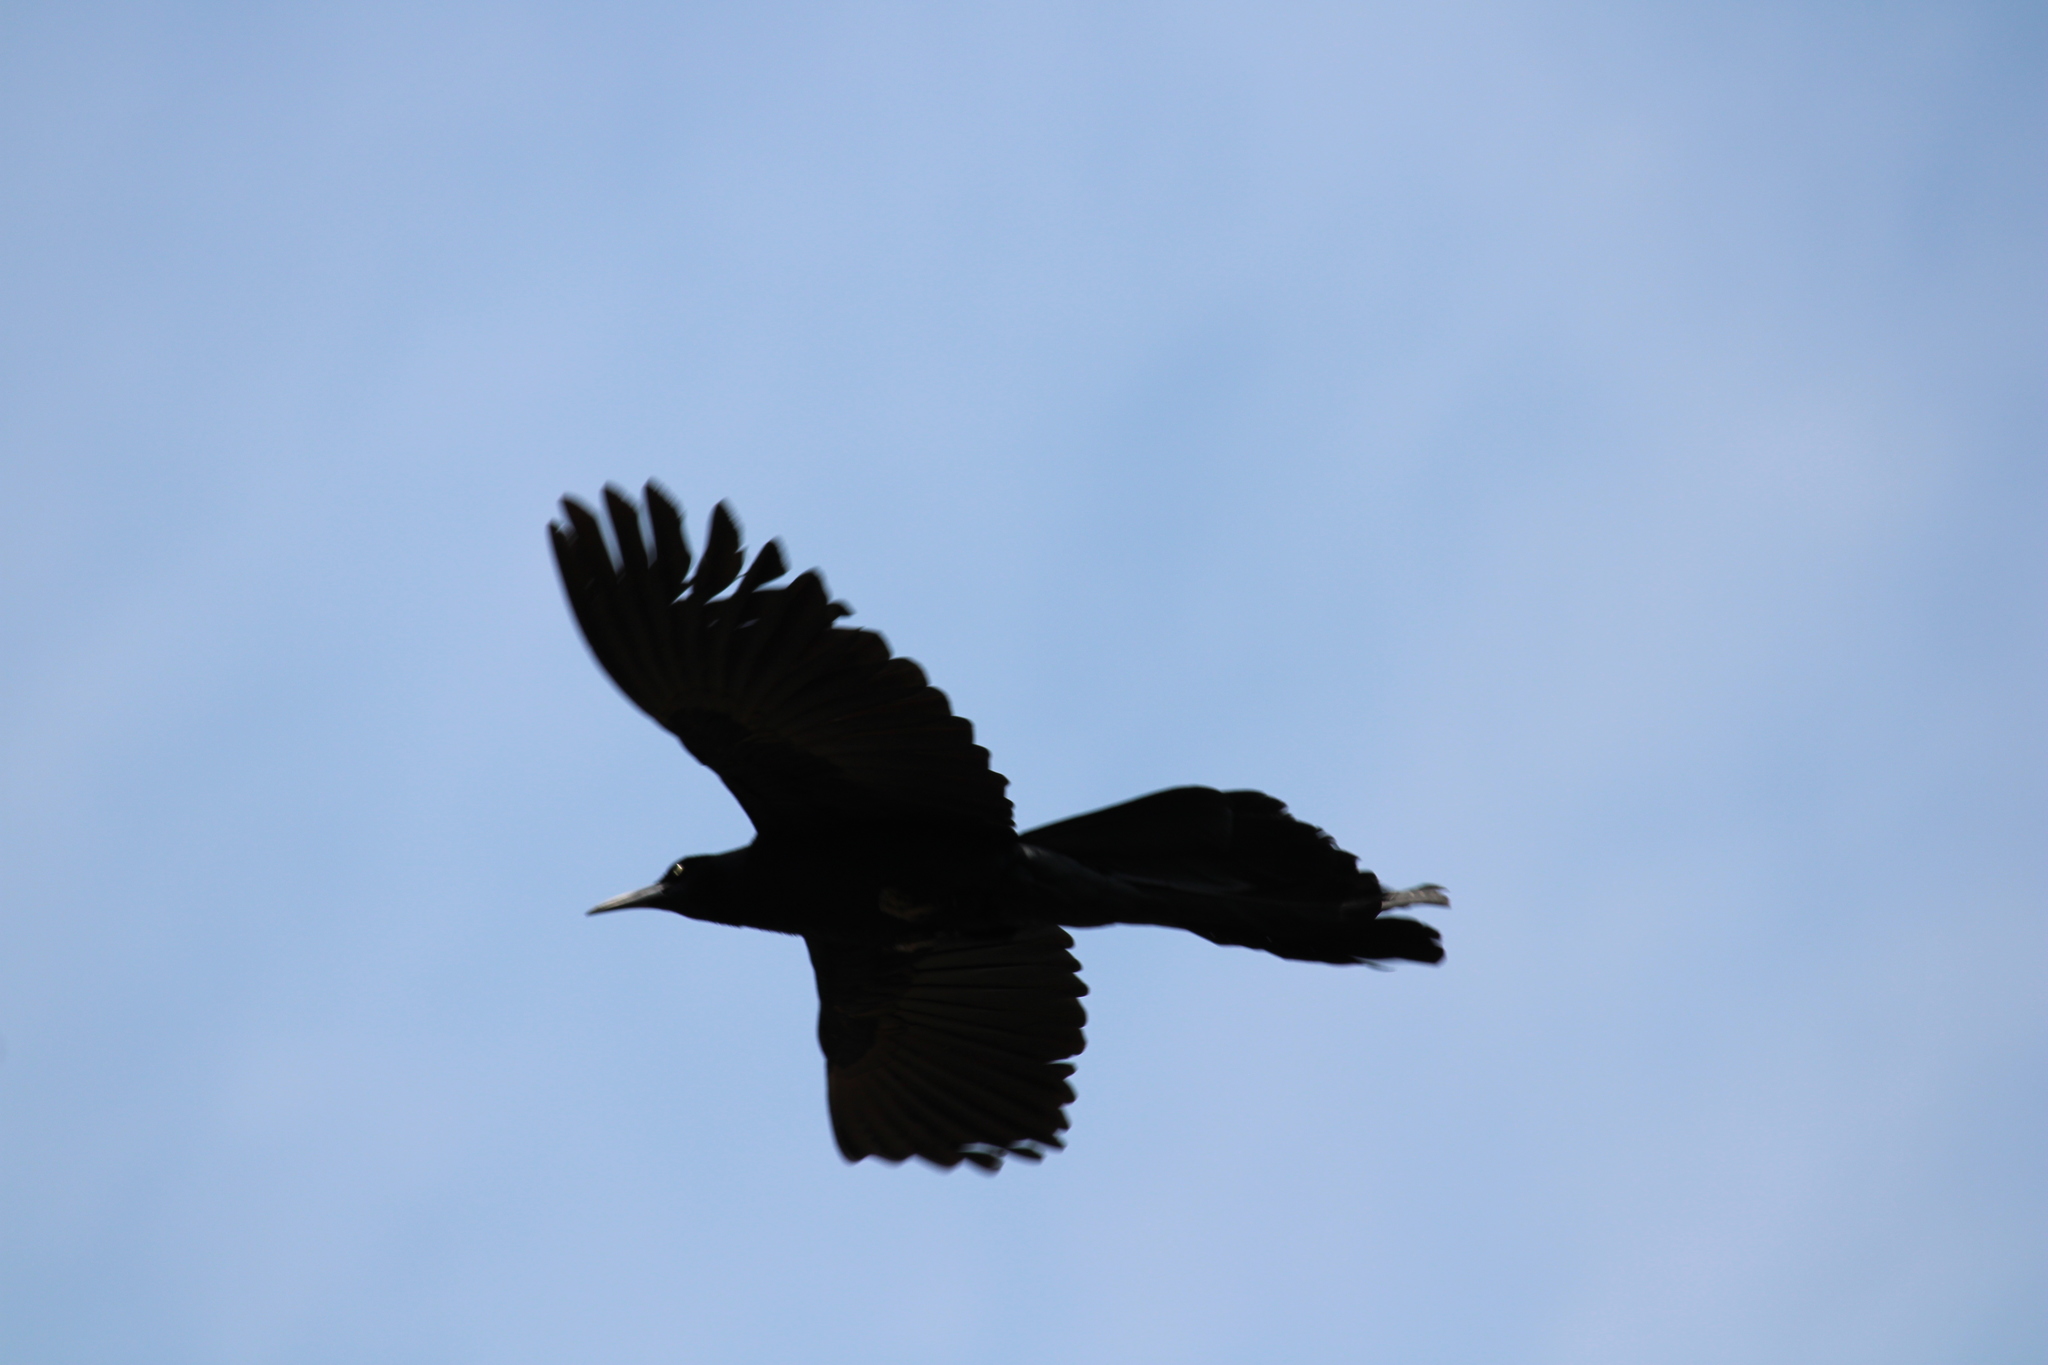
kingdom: Animalia
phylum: Chordata
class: Aves
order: Passeriformes
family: Icteridae
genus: Quiscalus
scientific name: Quiscalus mexicanus
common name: Great-tailed grackle
